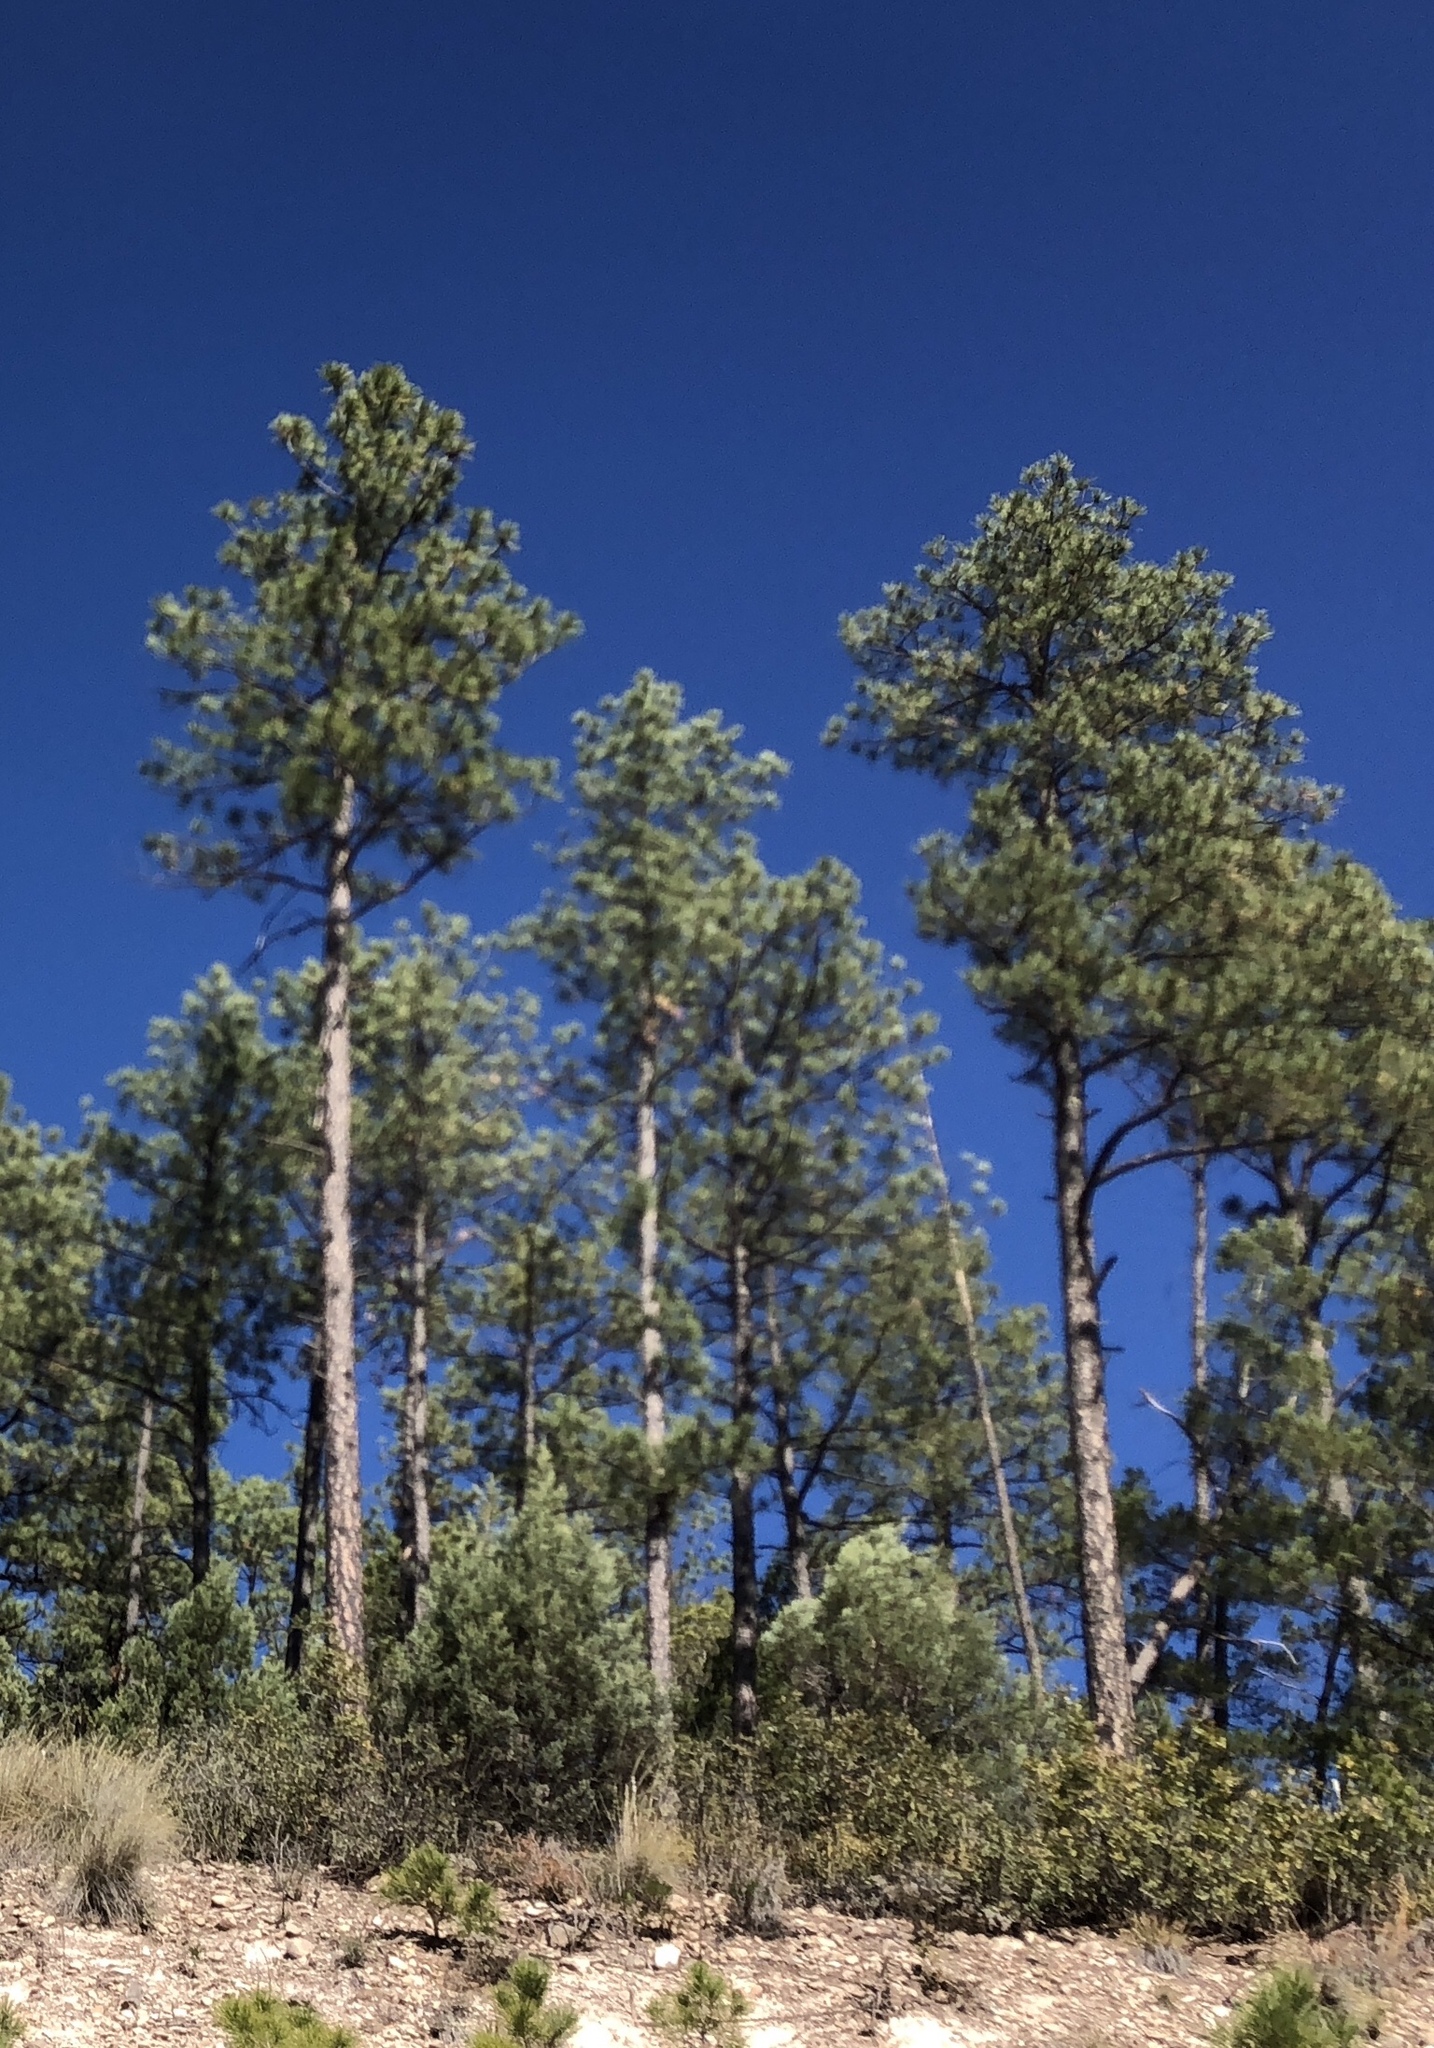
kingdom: Plantae
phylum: Tracheophyta
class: Pinopsida
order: Pinales
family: Pinaceae
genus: Pinus
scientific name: Pinus ponderosa
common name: Western yellow-pine
